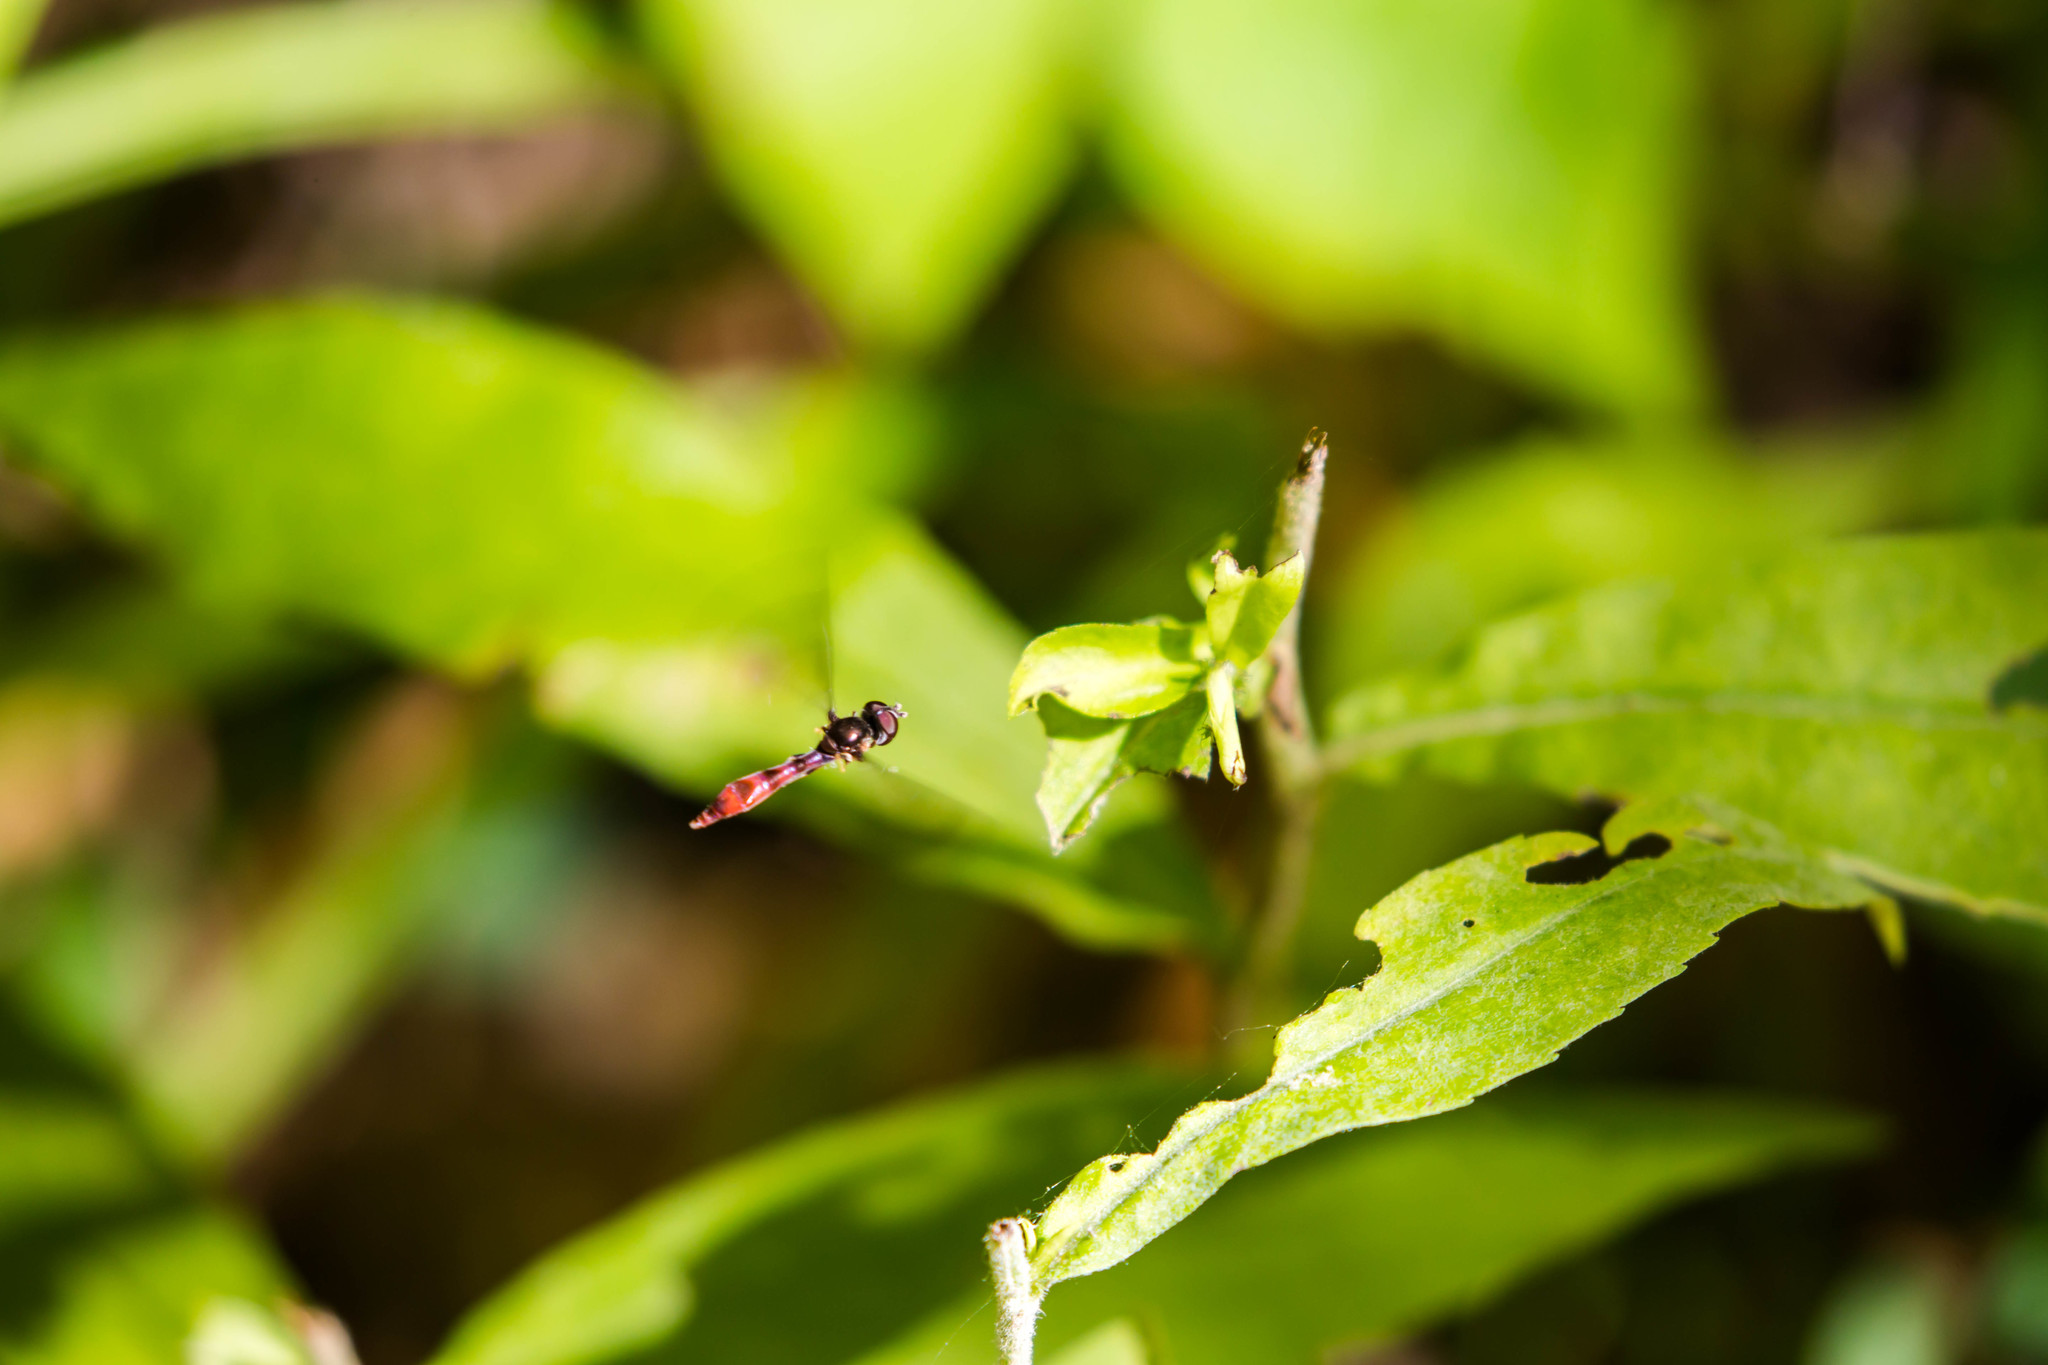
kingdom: Animalia
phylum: Arthropoda
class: Insecta
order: Diptera
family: Syrphidae
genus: Ocyptamus
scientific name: Ocyptamus fuscipennis
